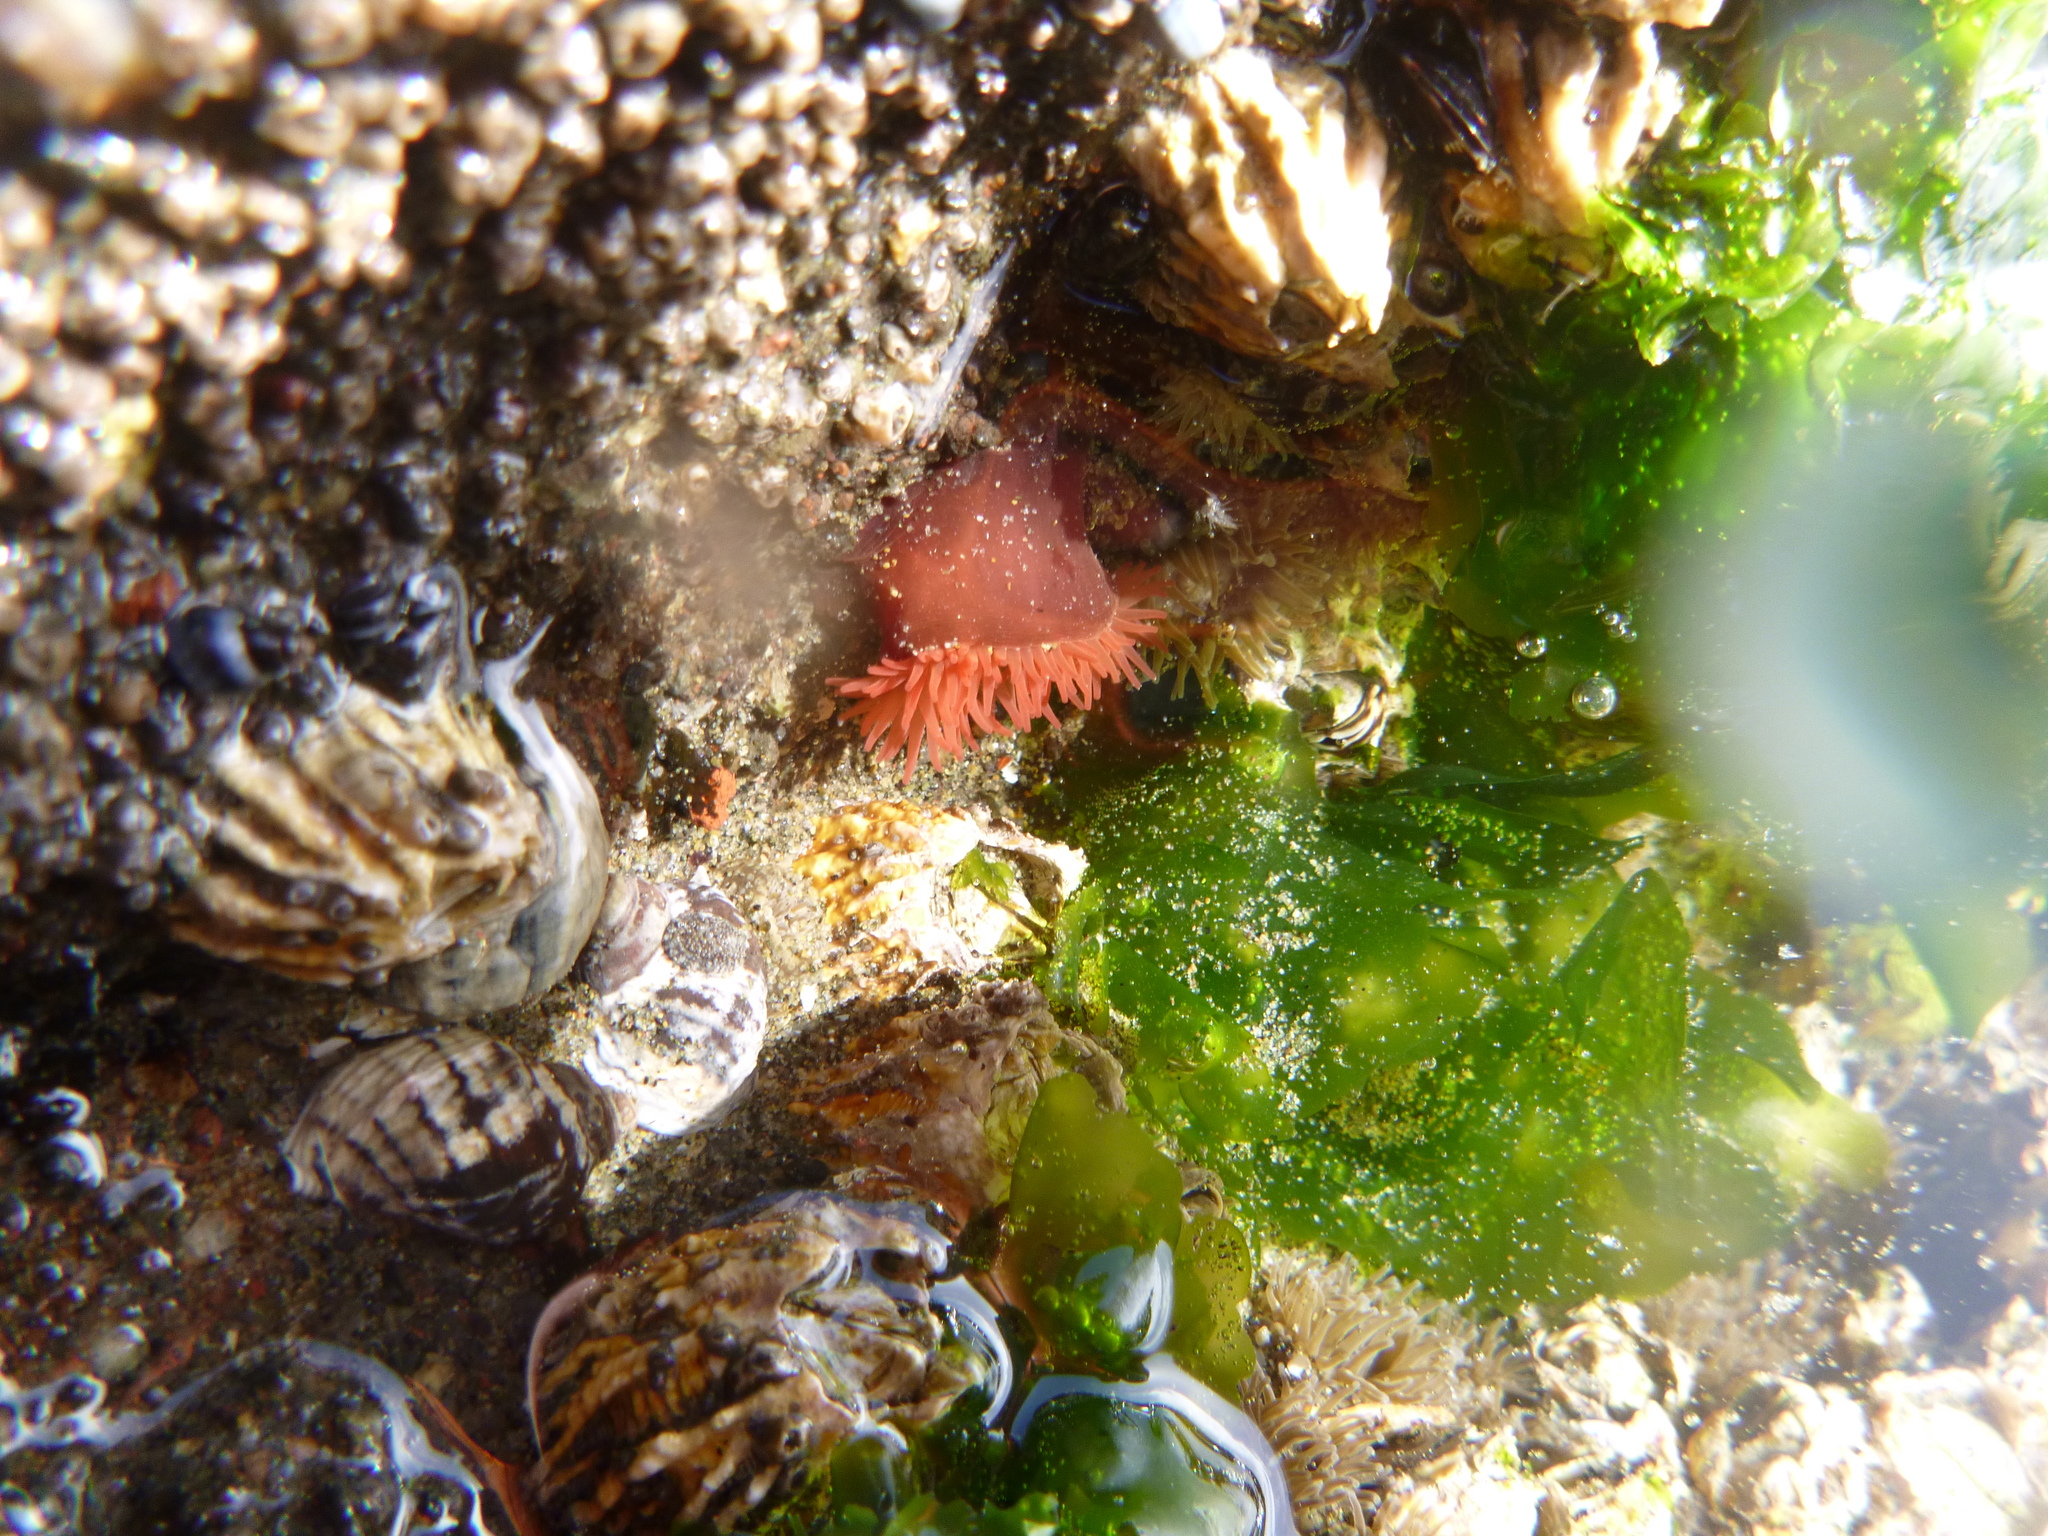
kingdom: Animalia
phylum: Cnidaria
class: Anthozoa
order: Actiniaria
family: Actiniidae
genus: Actinia
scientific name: Actinia tenebrosa
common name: Waratah anemone
